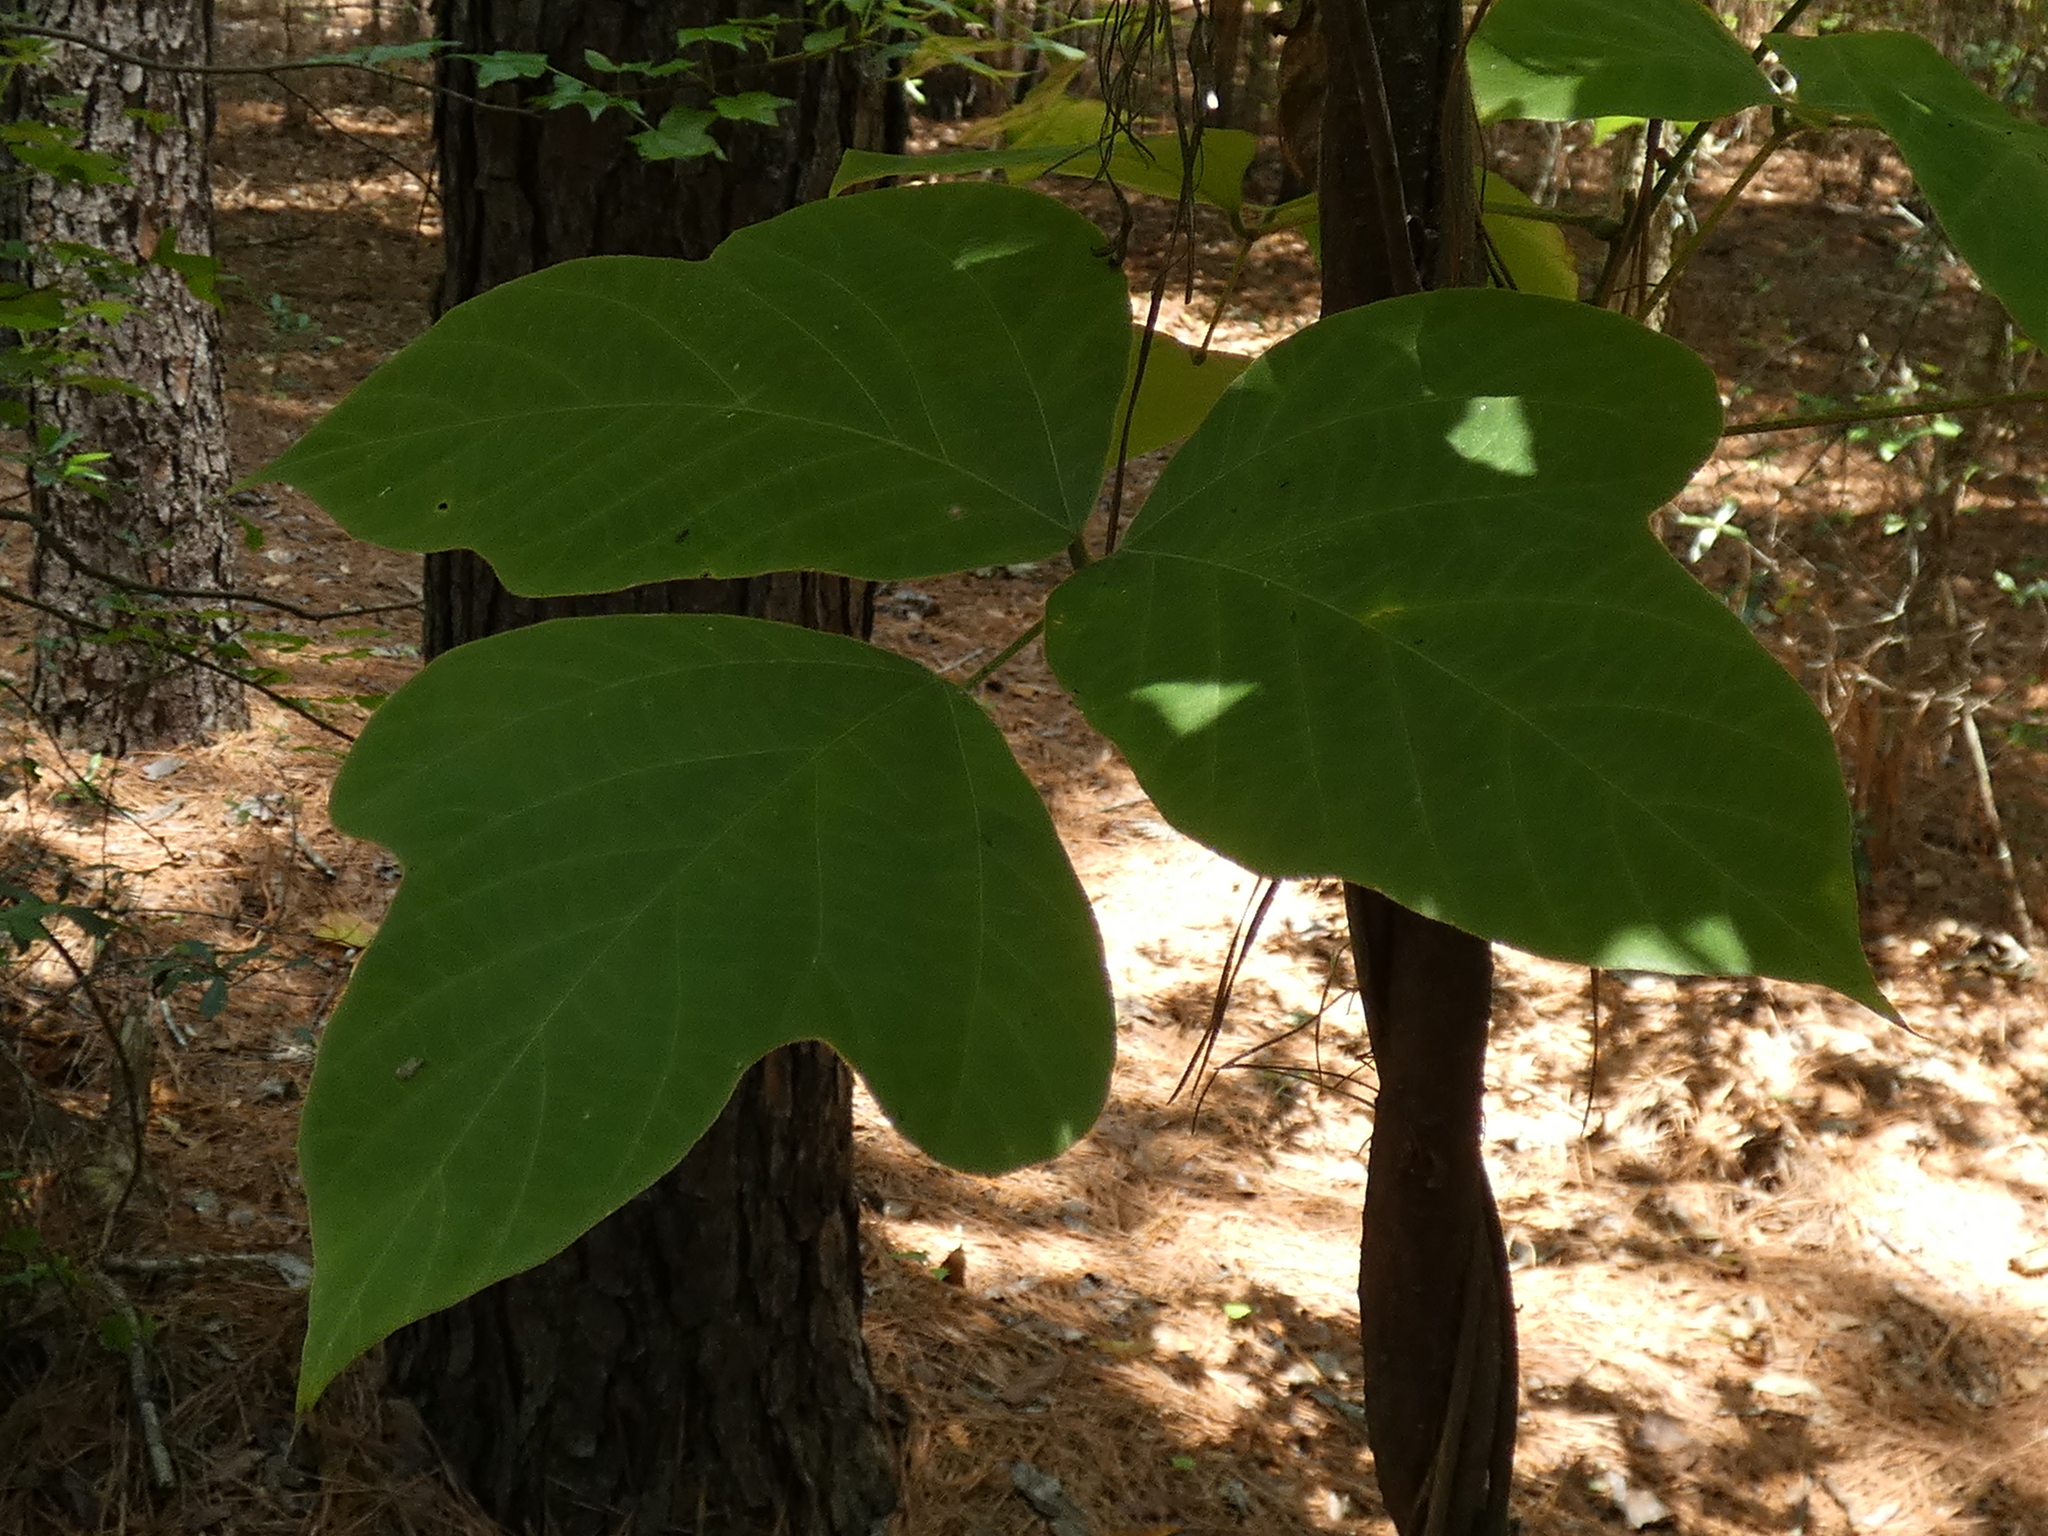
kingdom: Plantae
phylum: Tracheophyta
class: Magnoliopsida
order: Fabales
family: Fabaceae
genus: Pueraria
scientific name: Pueraria montana
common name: Kudzu
